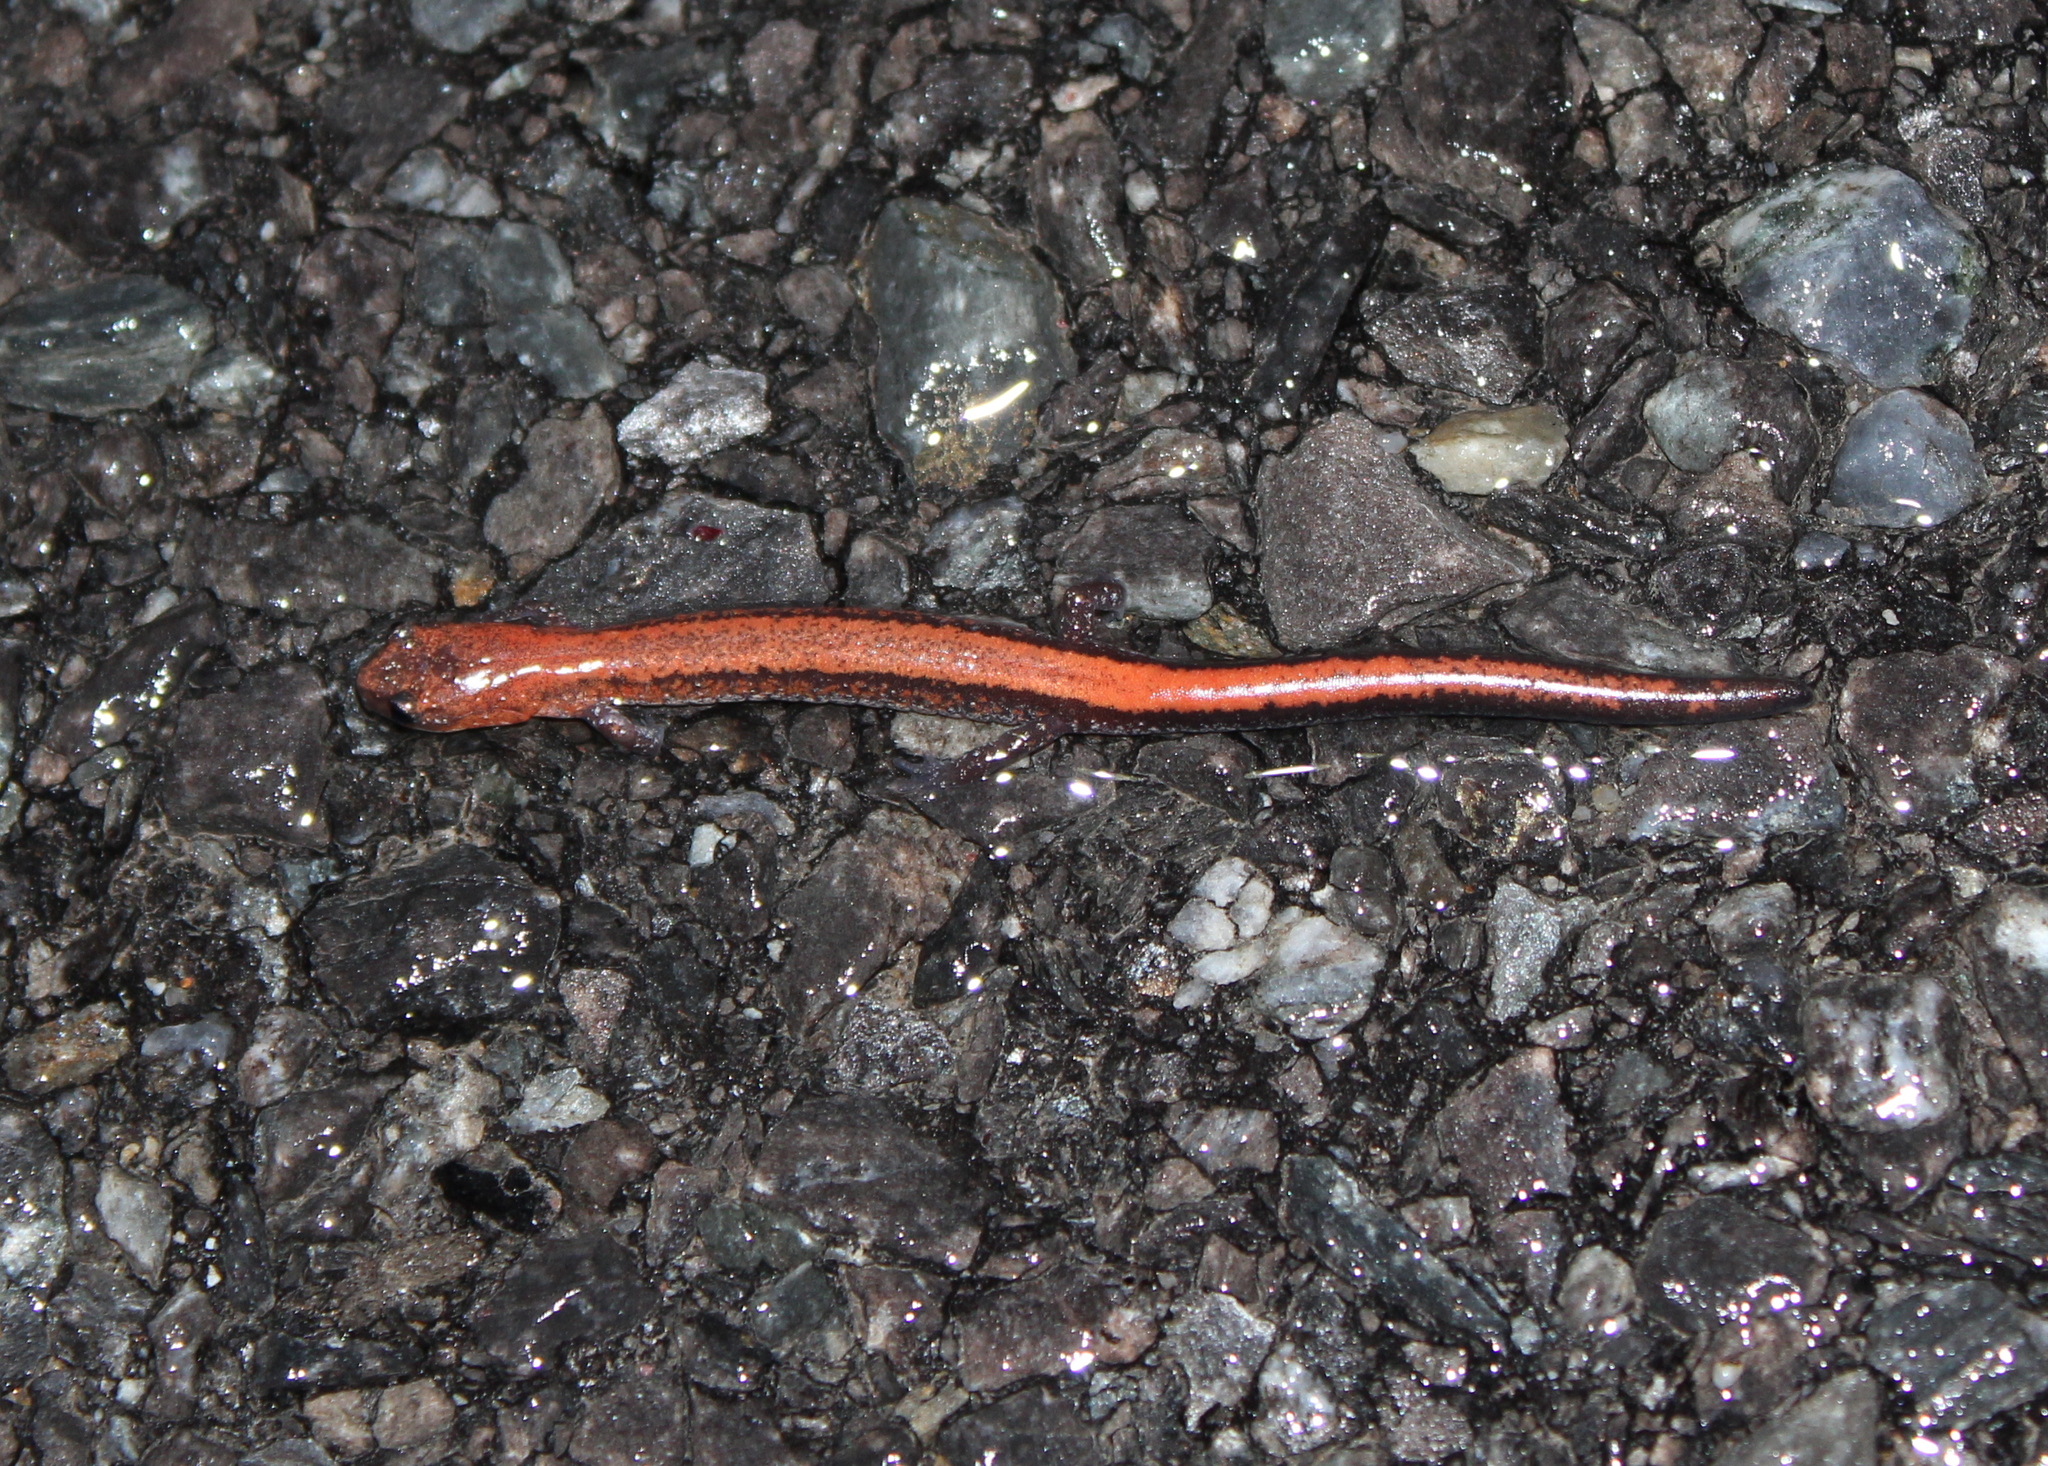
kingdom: Animalia
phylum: Chordata
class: Amphibia
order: Caudata
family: Plethodontidae
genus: Plethodon
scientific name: Plethodon cinereus
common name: Redback salamander
